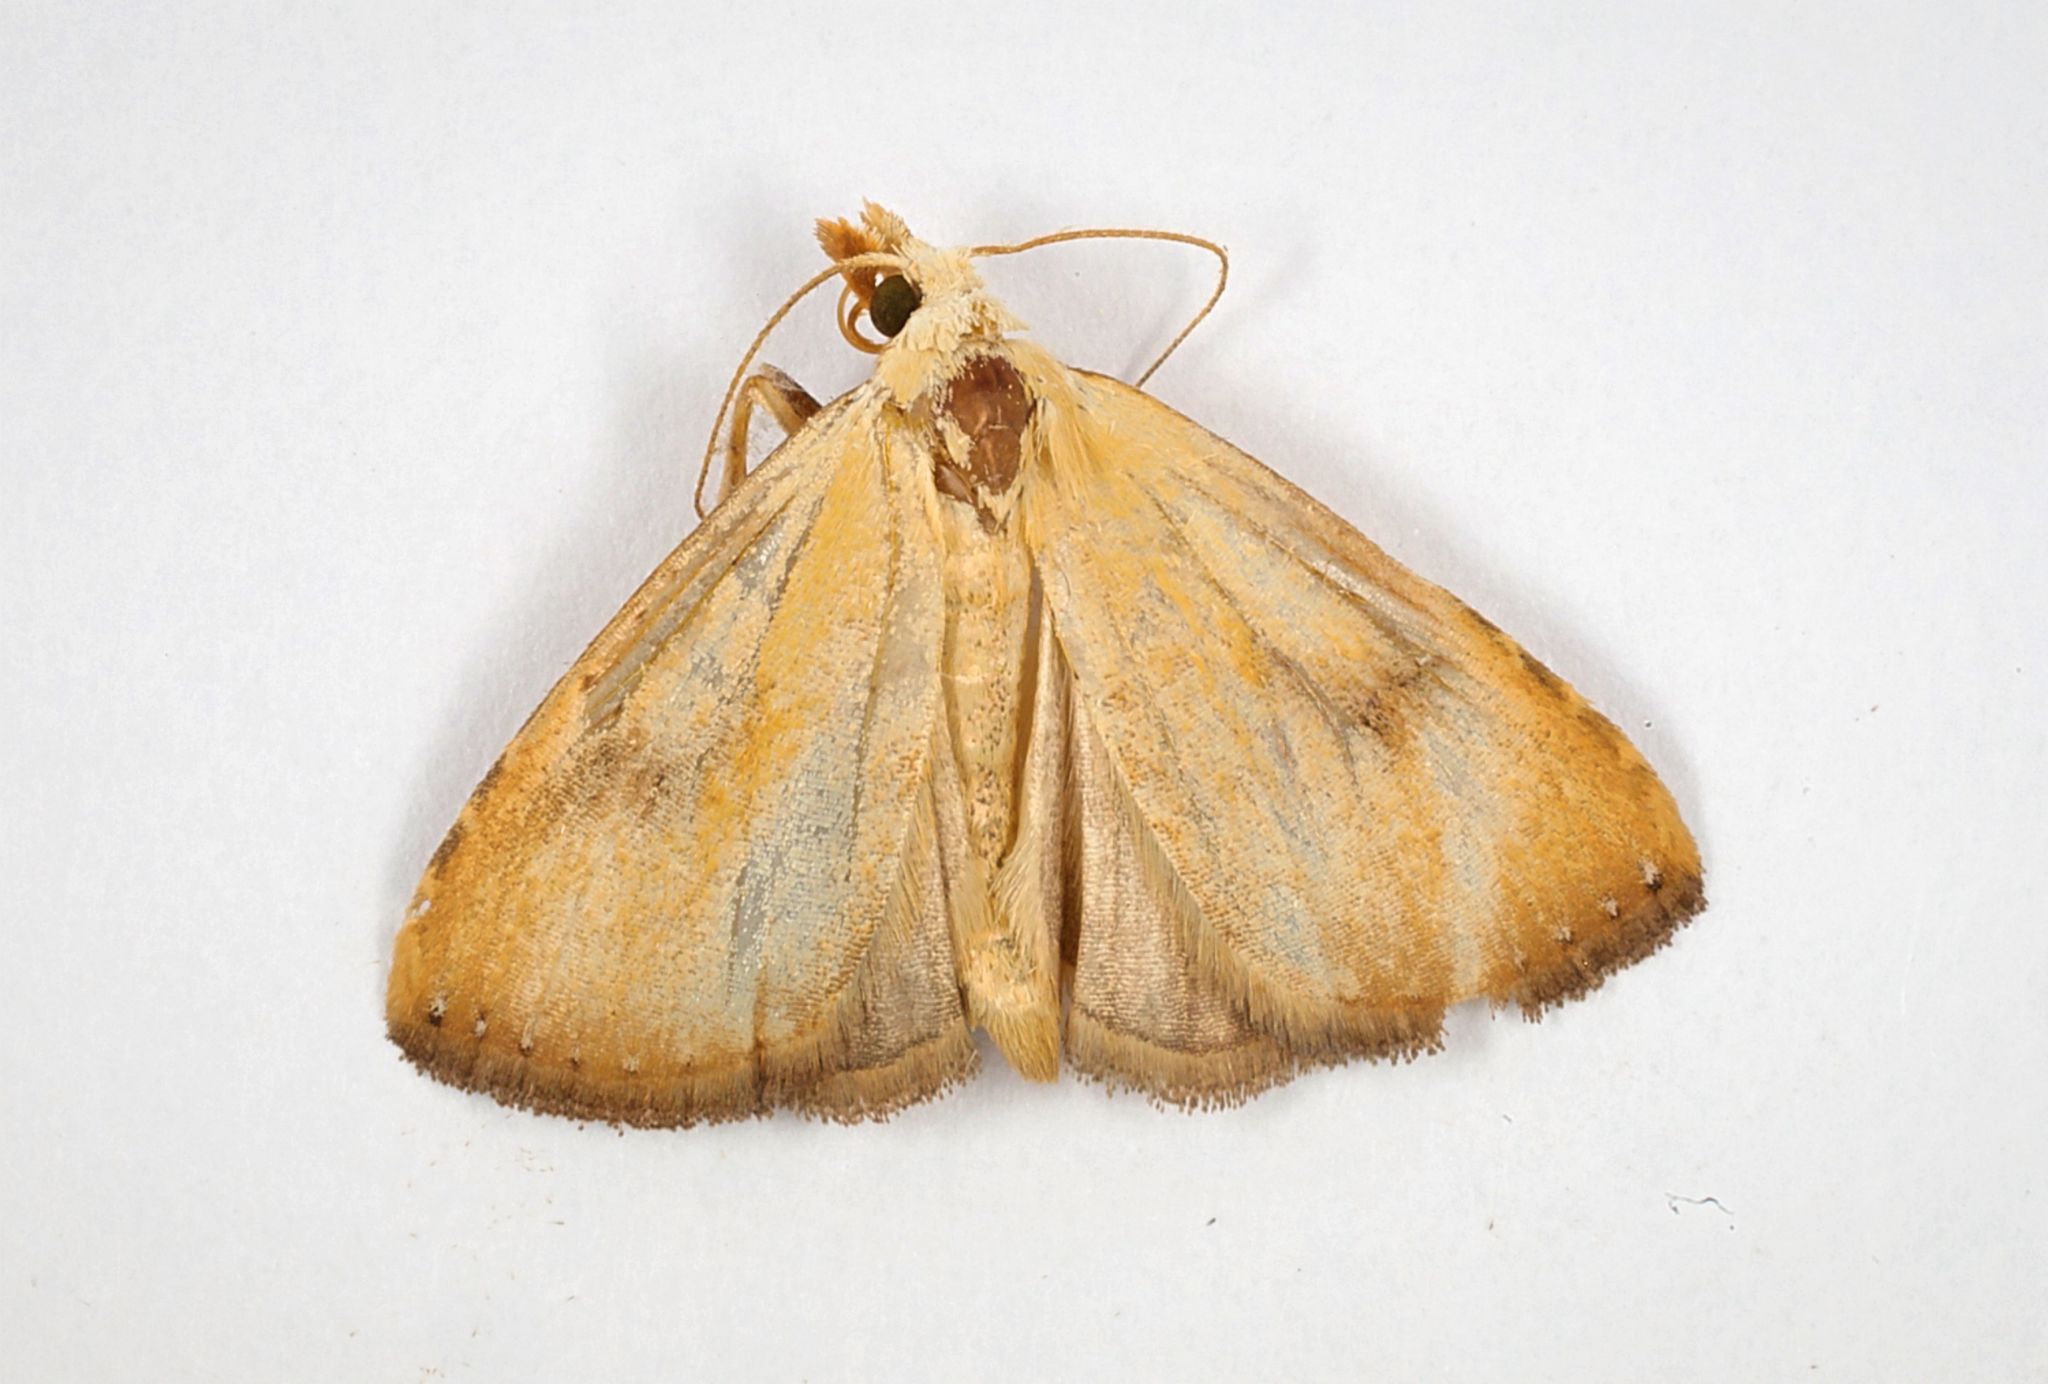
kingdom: Animalia
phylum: Arthropoda
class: Insecta
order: Lepidoptera
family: Erebidae
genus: Rivula
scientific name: Rivula sericealis
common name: Straw dot
